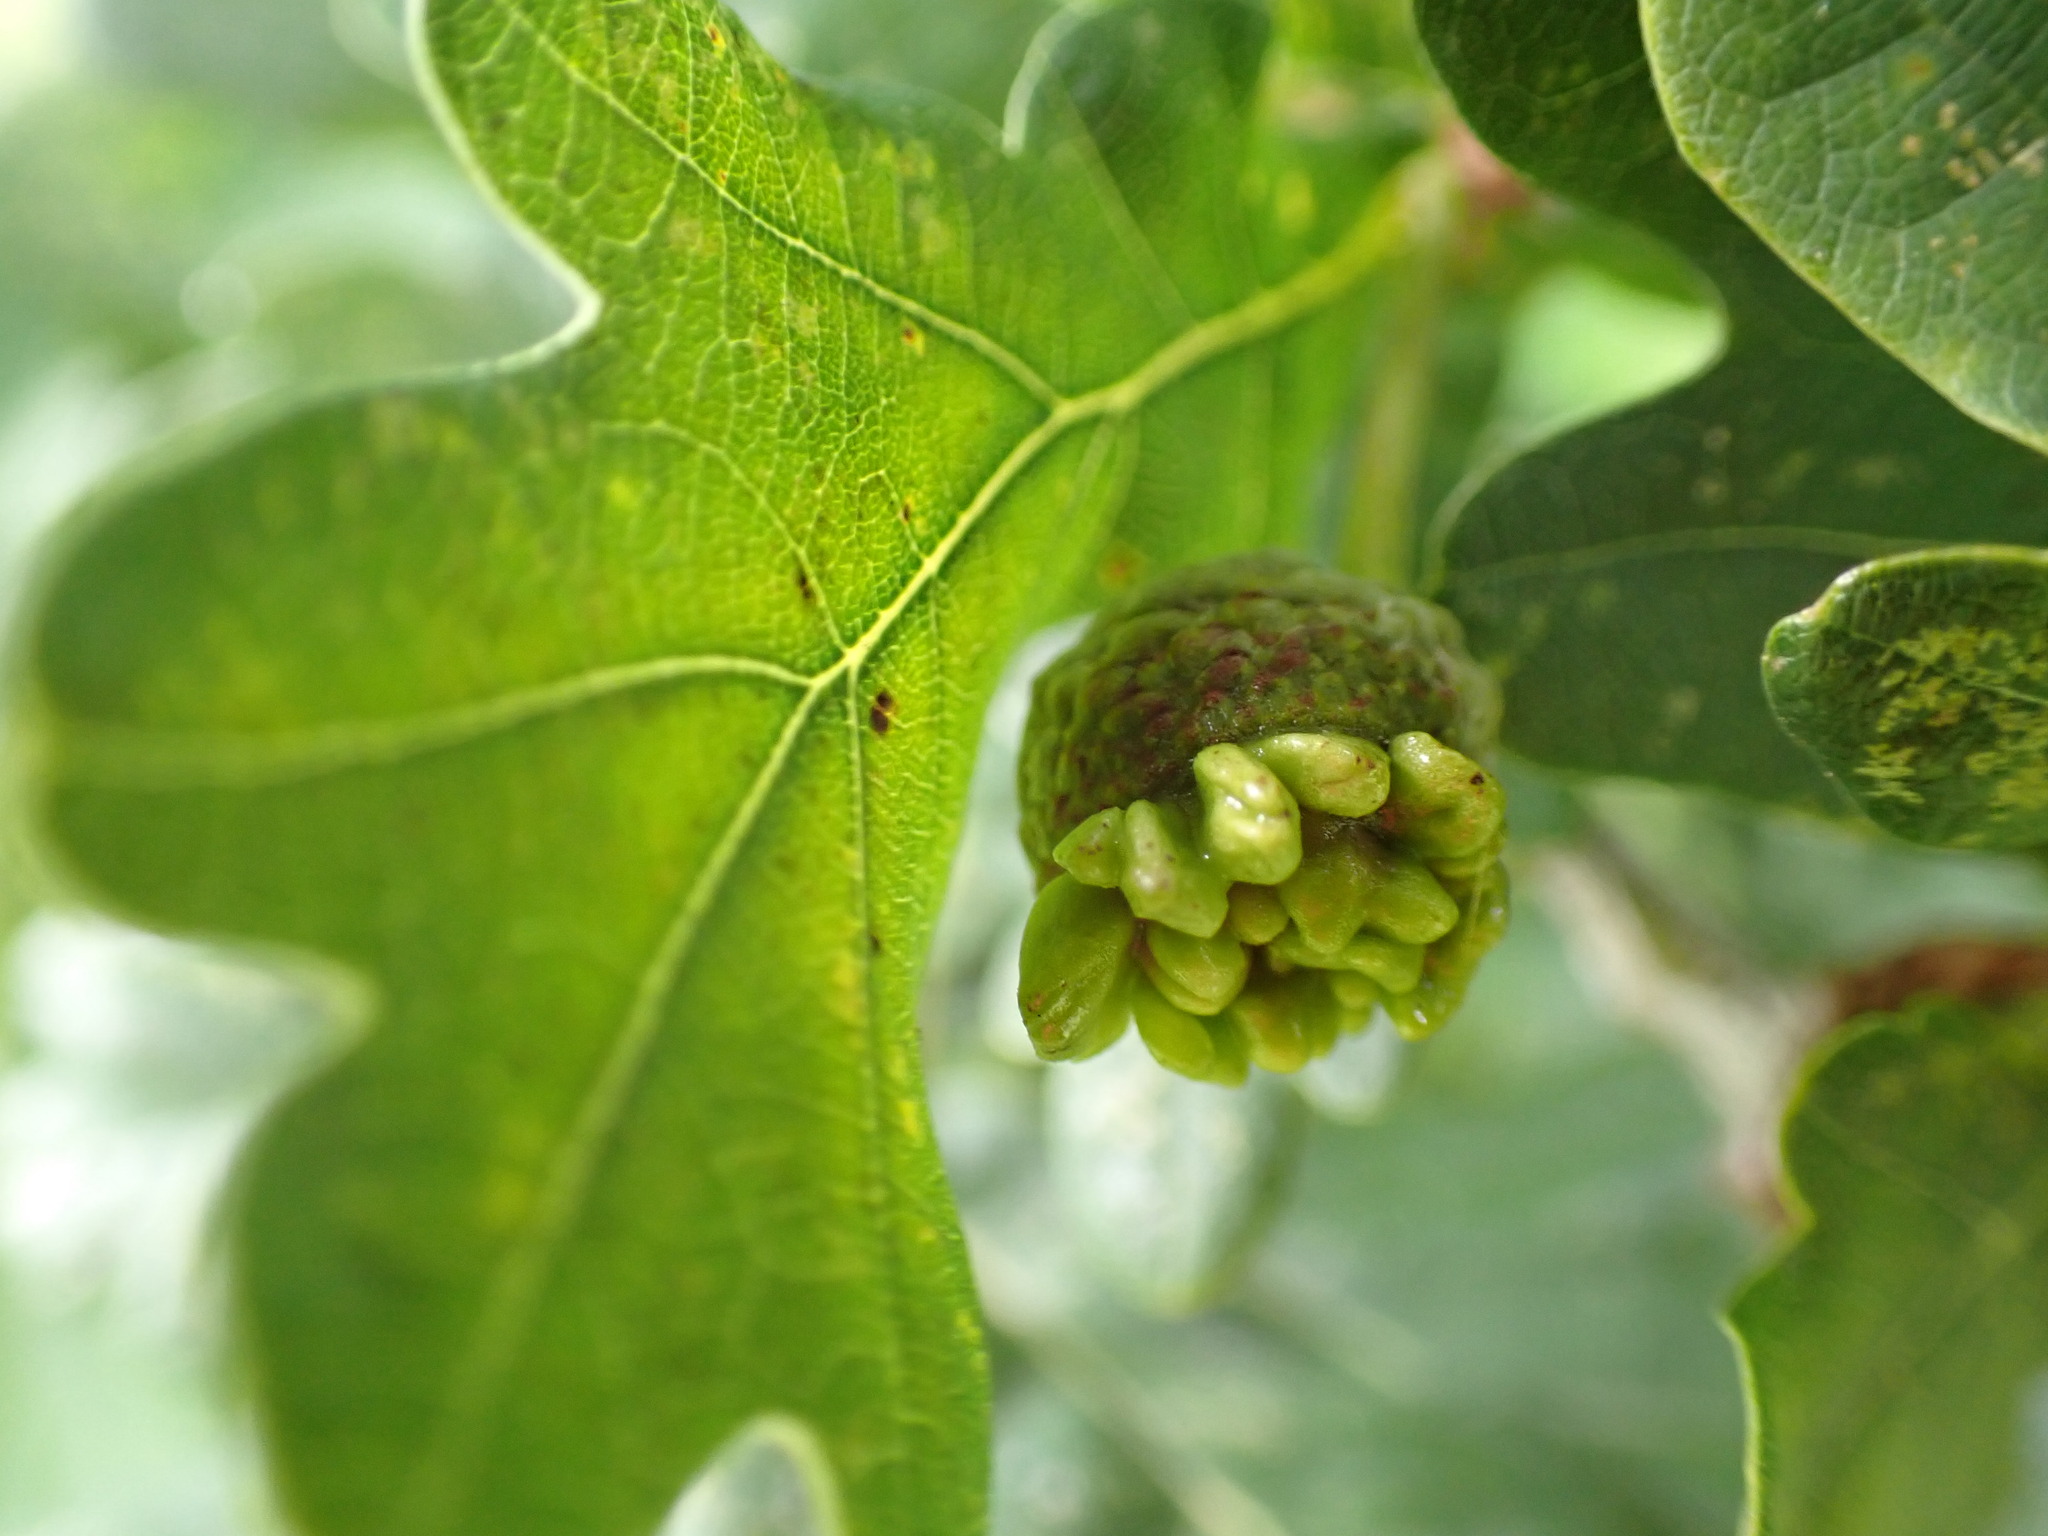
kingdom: Animalia
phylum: Arthropoda
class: Insecta
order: Hymenoptera
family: Cynipidae
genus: Andricus
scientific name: Andricus quercuscalicis
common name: Knopper gall
